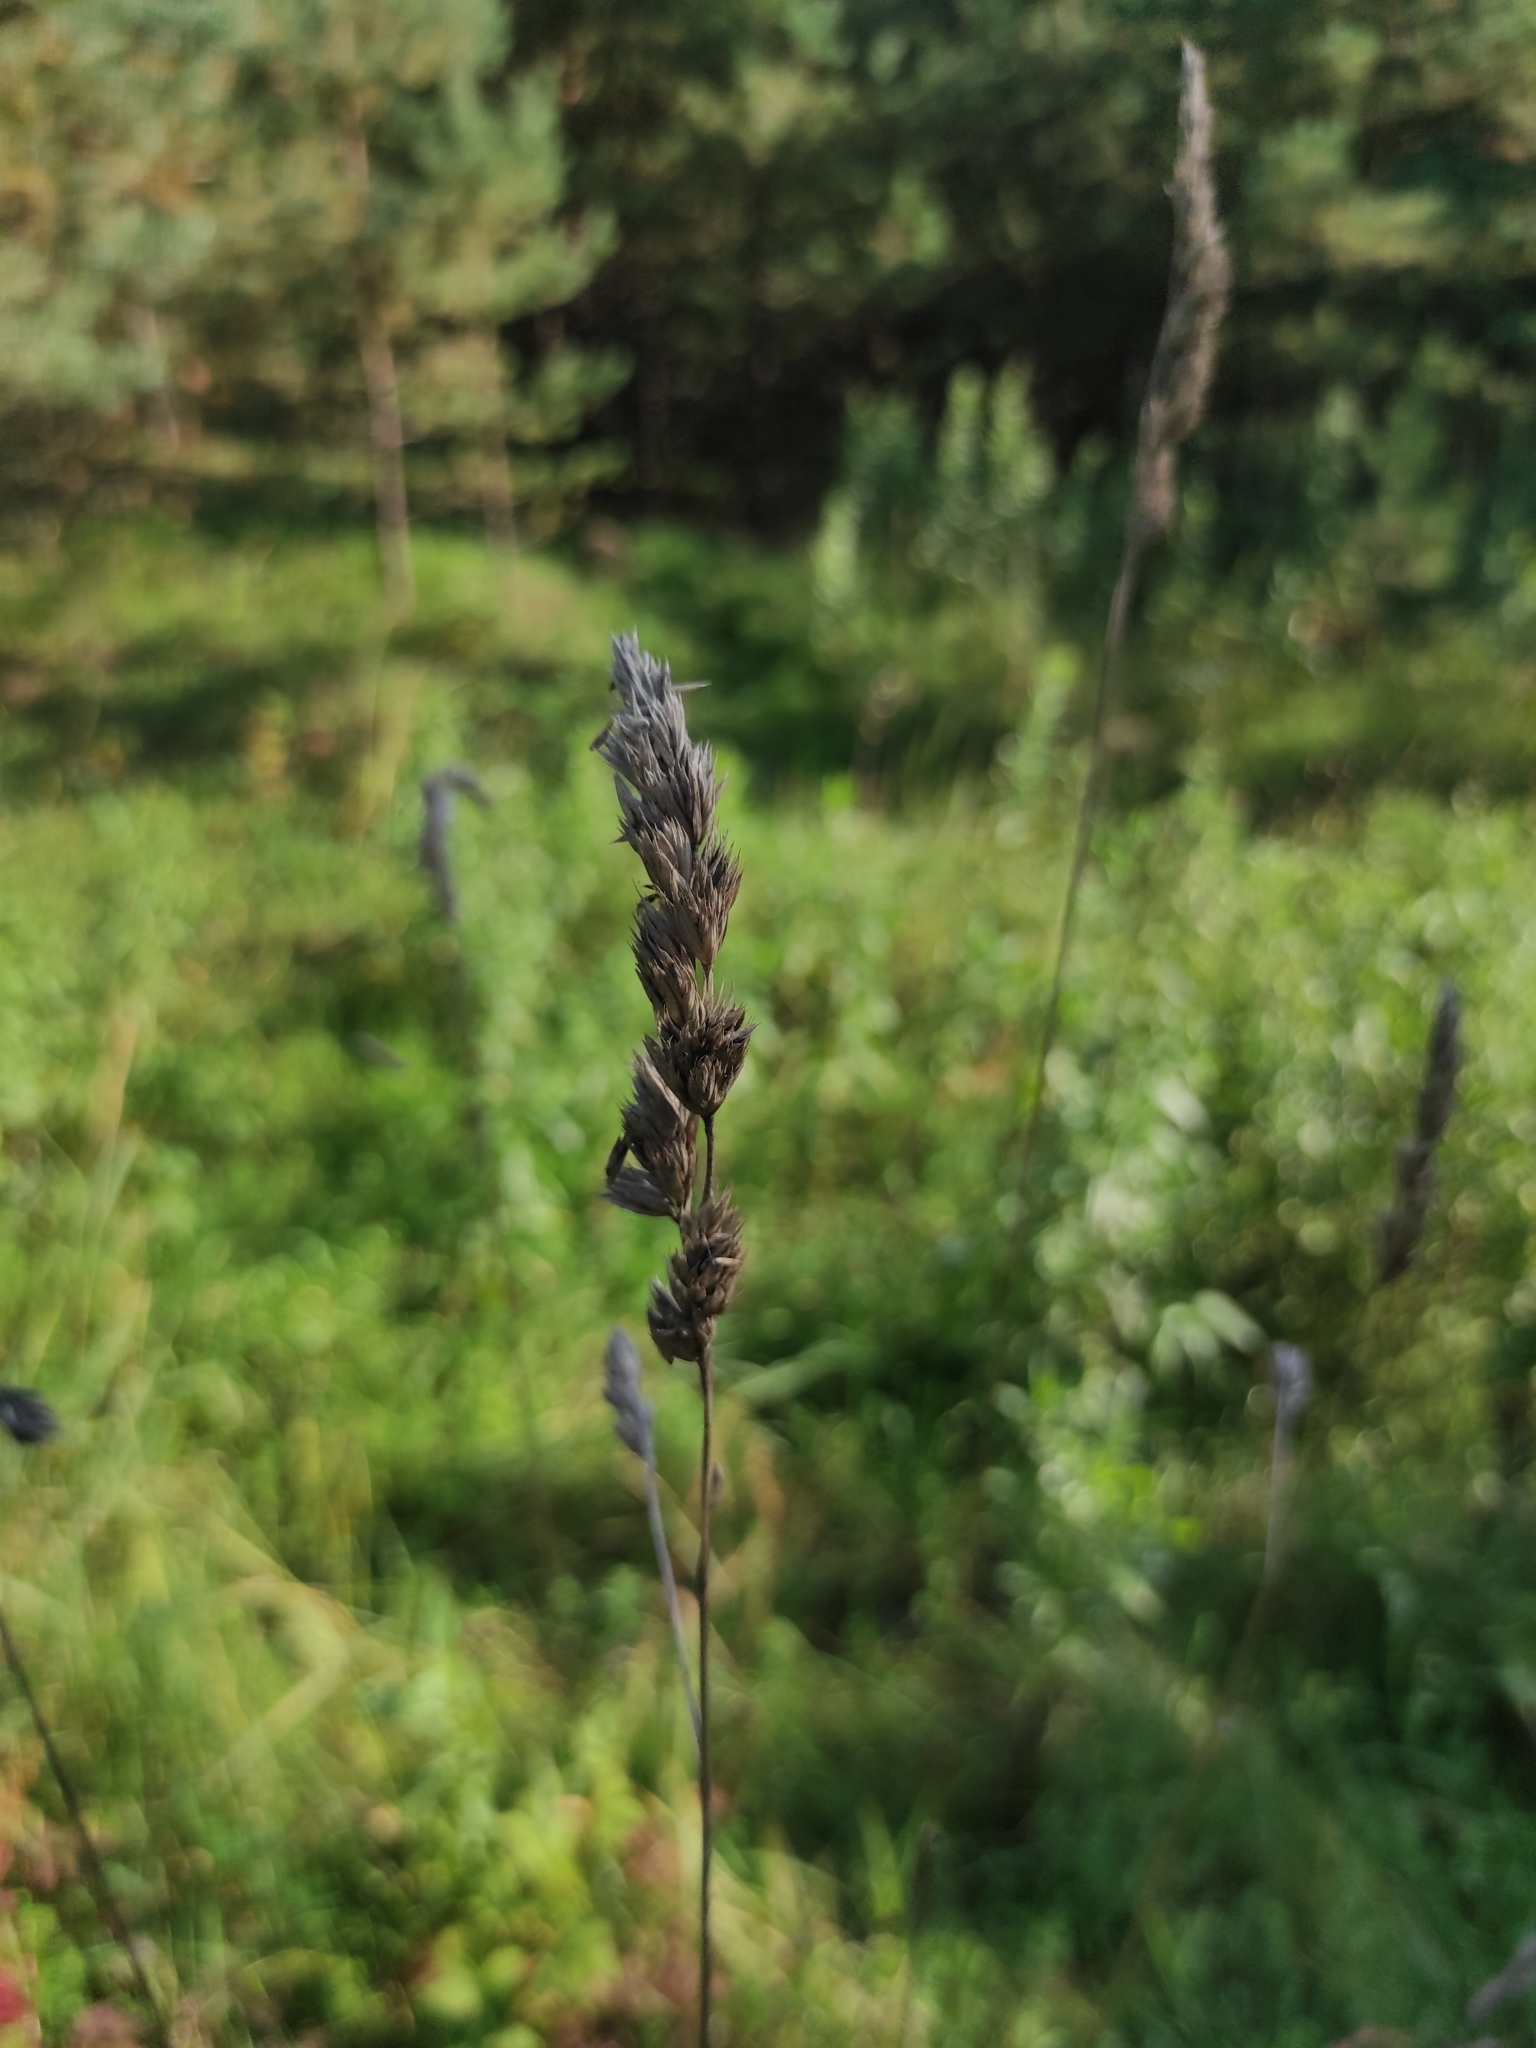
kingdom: Plantae
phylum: Tracheophyta
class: Liliopsida
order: Poales
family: Poaceae
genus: Dactylis
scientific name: Dactylis glomerata
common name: Orchardgrass
